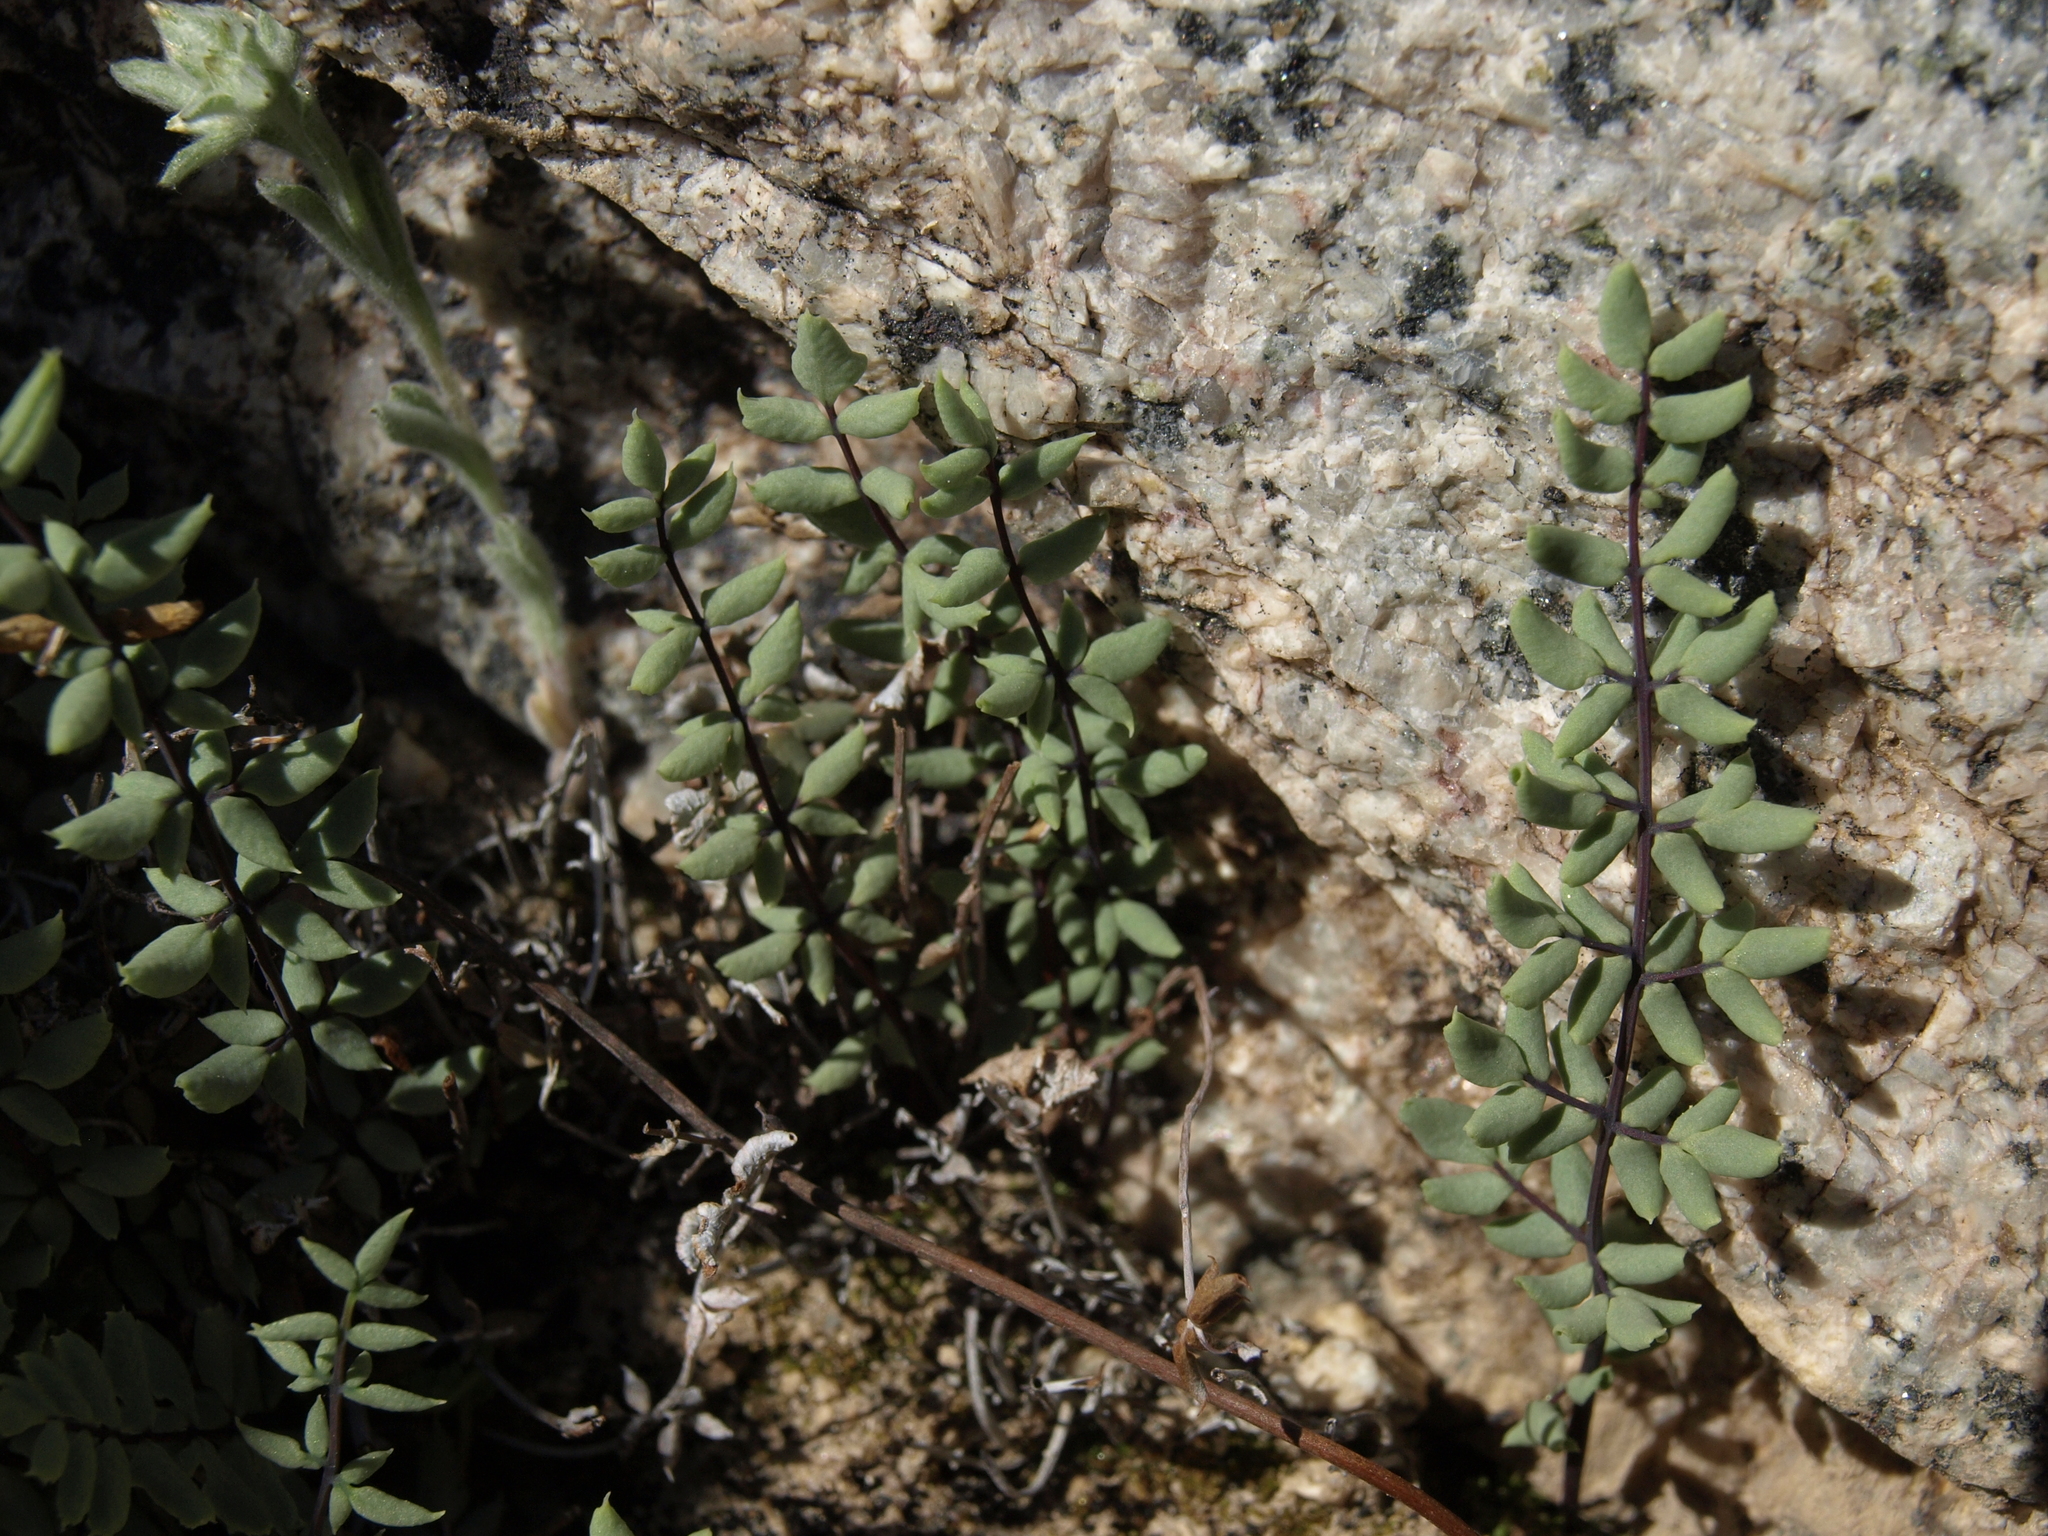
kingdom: Plantae
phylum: Tracheophyta
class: Polypodiopsida
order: Polypodiales
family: Pteridaceae
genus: Pellaea
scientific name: Pellaea mucronata
